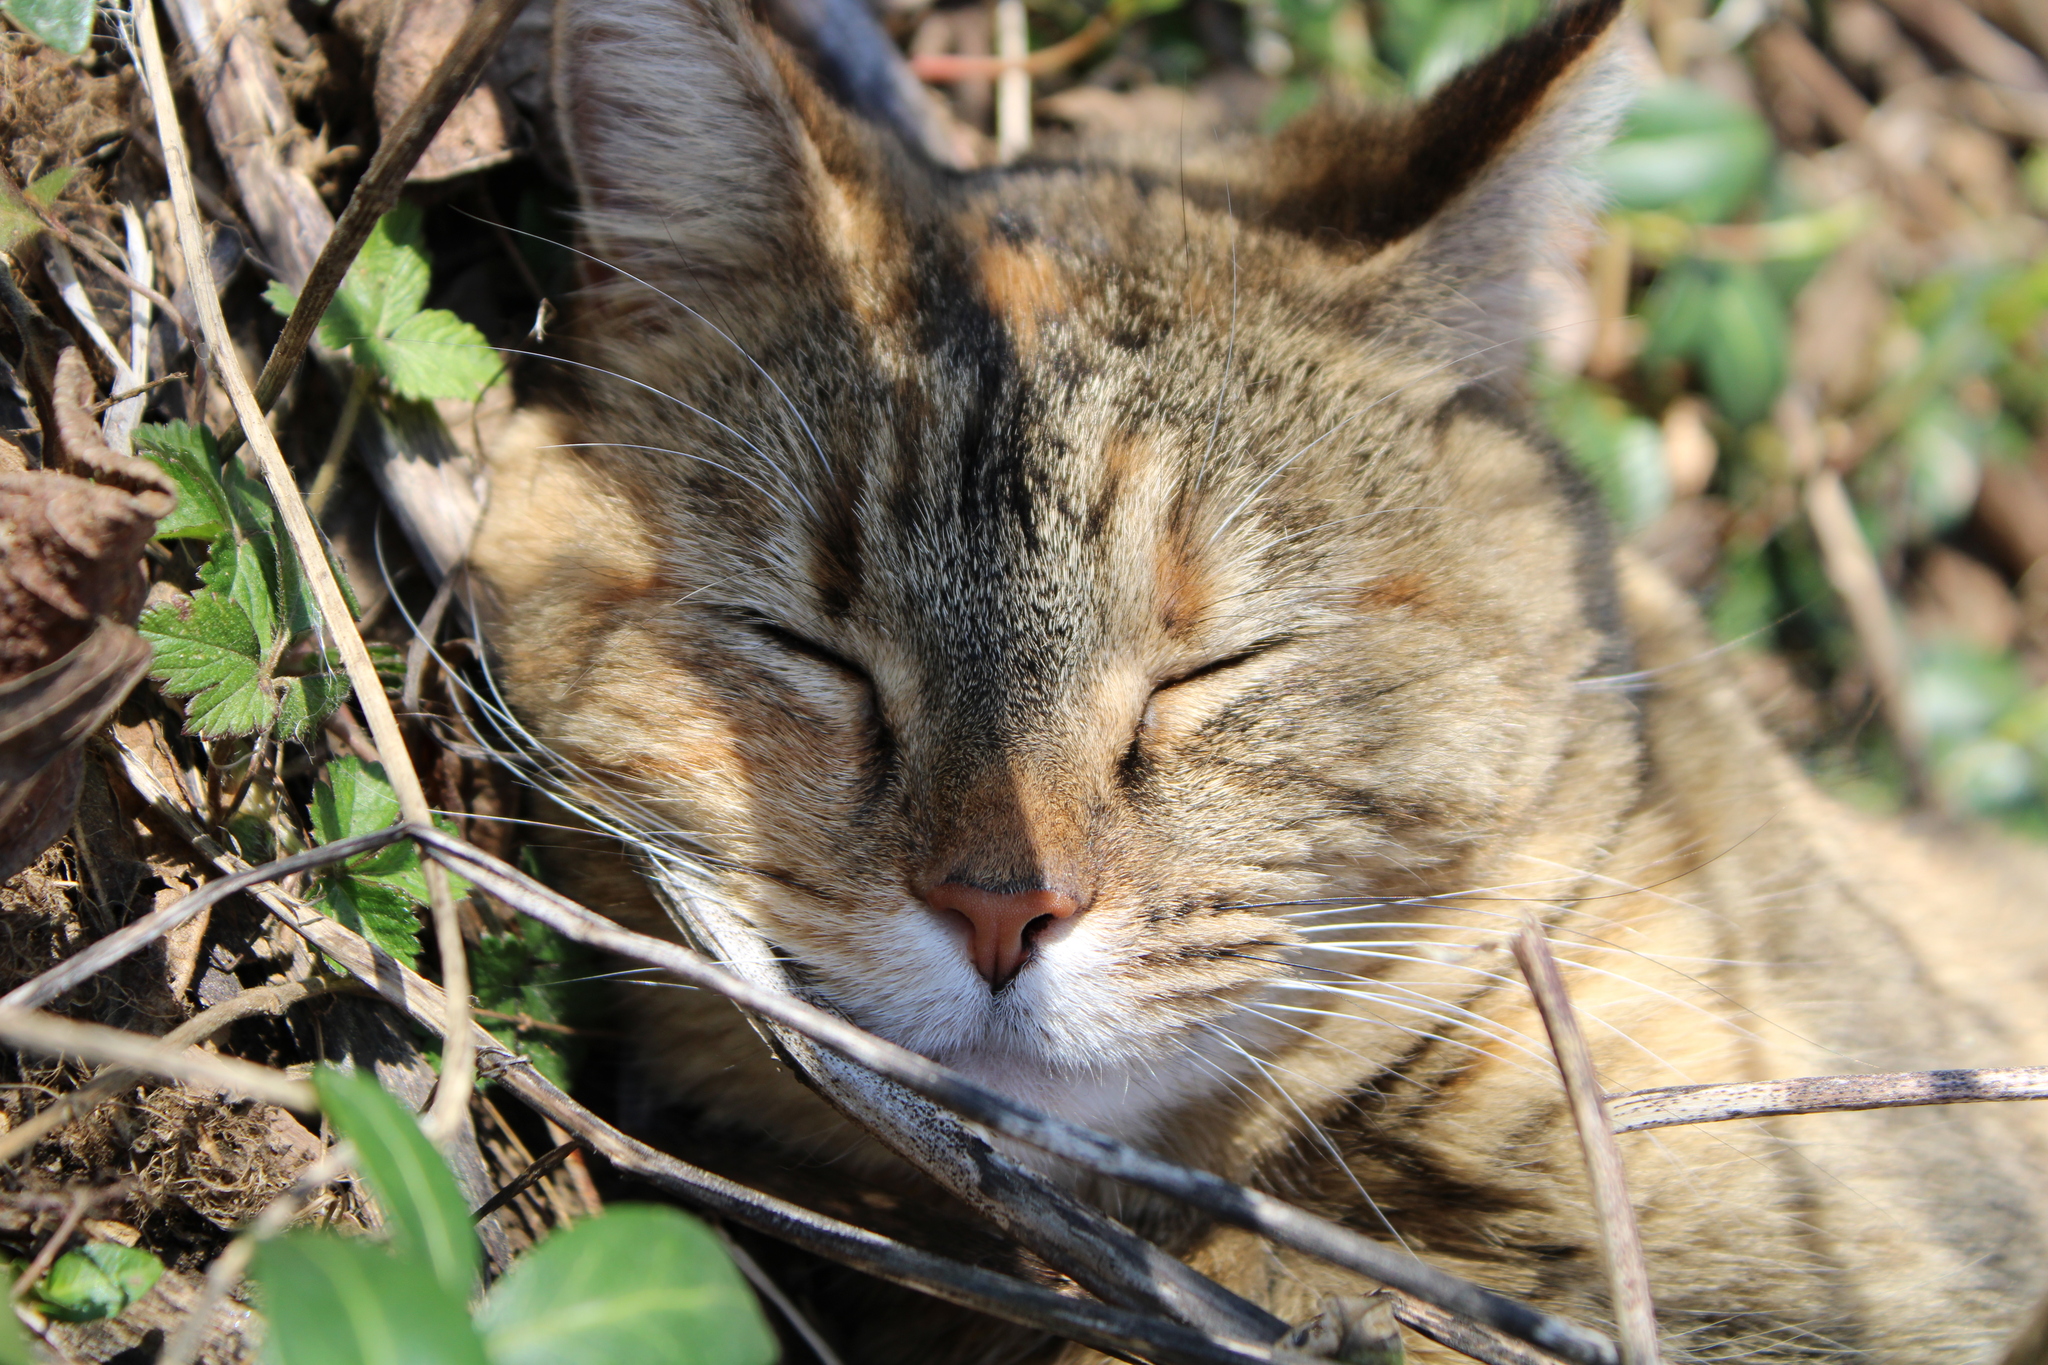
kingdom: Animalia
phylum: Chordata
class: Mammalia
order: Carnivora
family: Felidae
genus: Felis
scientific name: Felis catus
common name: Domestic cat
